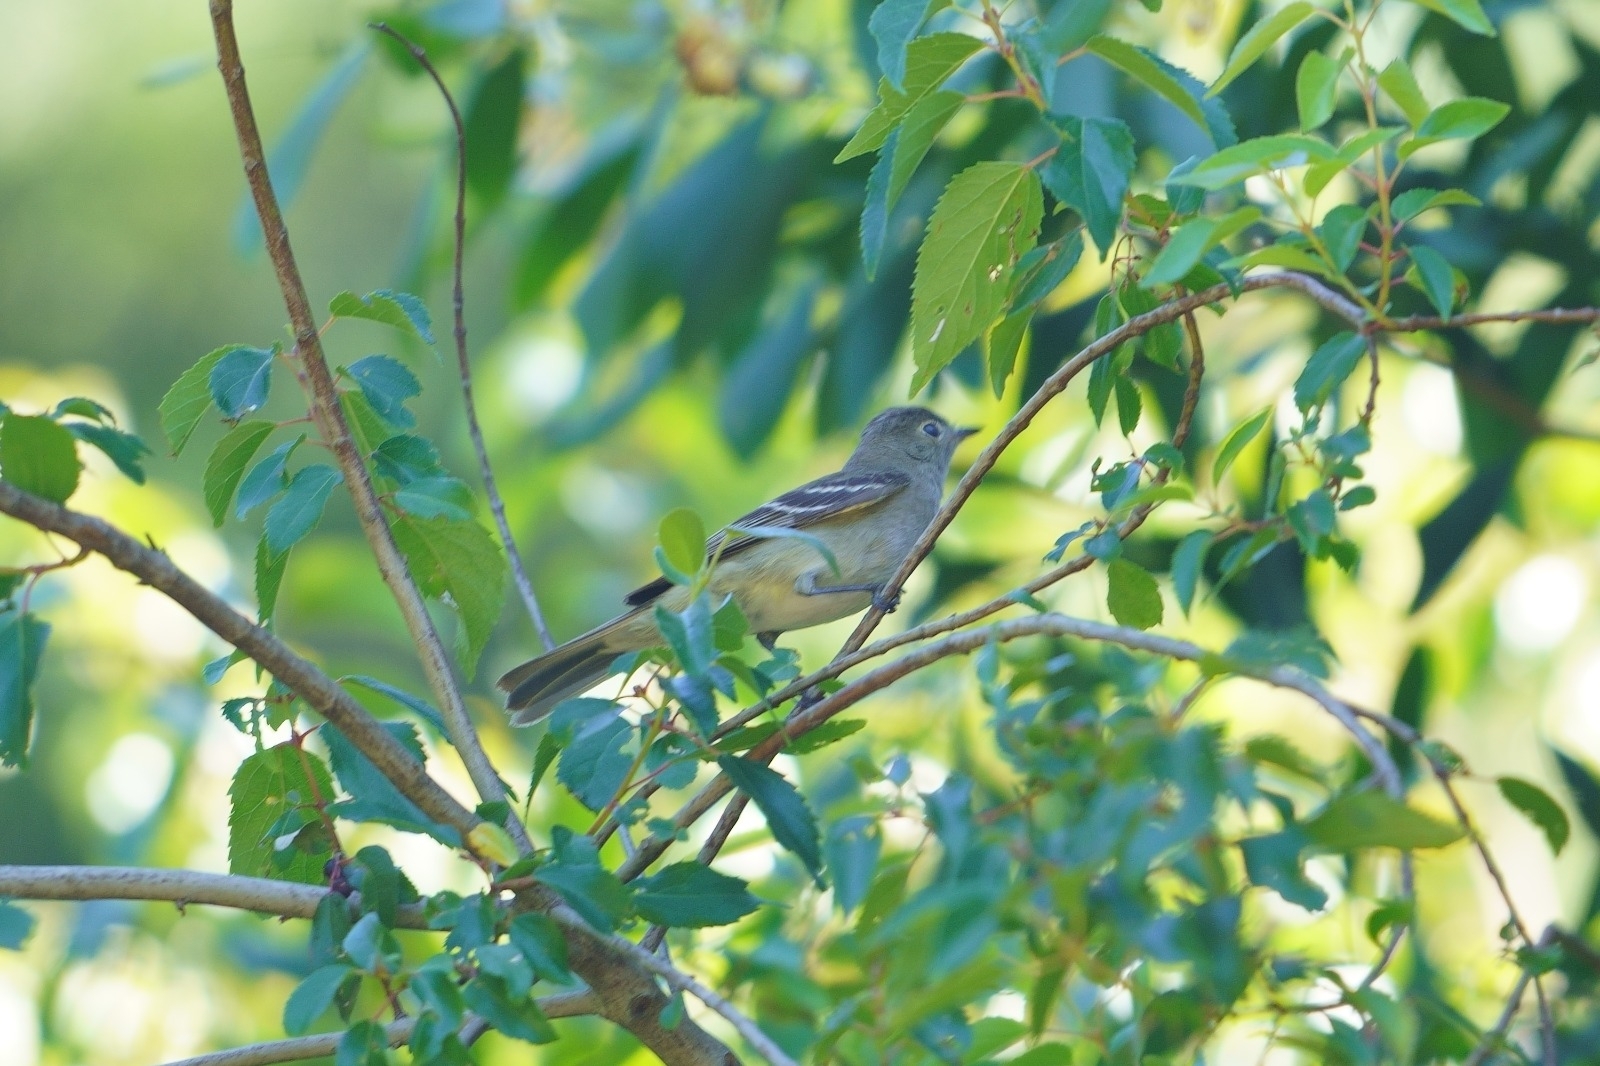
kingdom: Animalia
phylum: Chordata
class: Aves
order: Passeriformes
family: Tyrannidae
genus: Elaenia
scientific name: Elaenia albiceps
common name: White-crested elaenia
